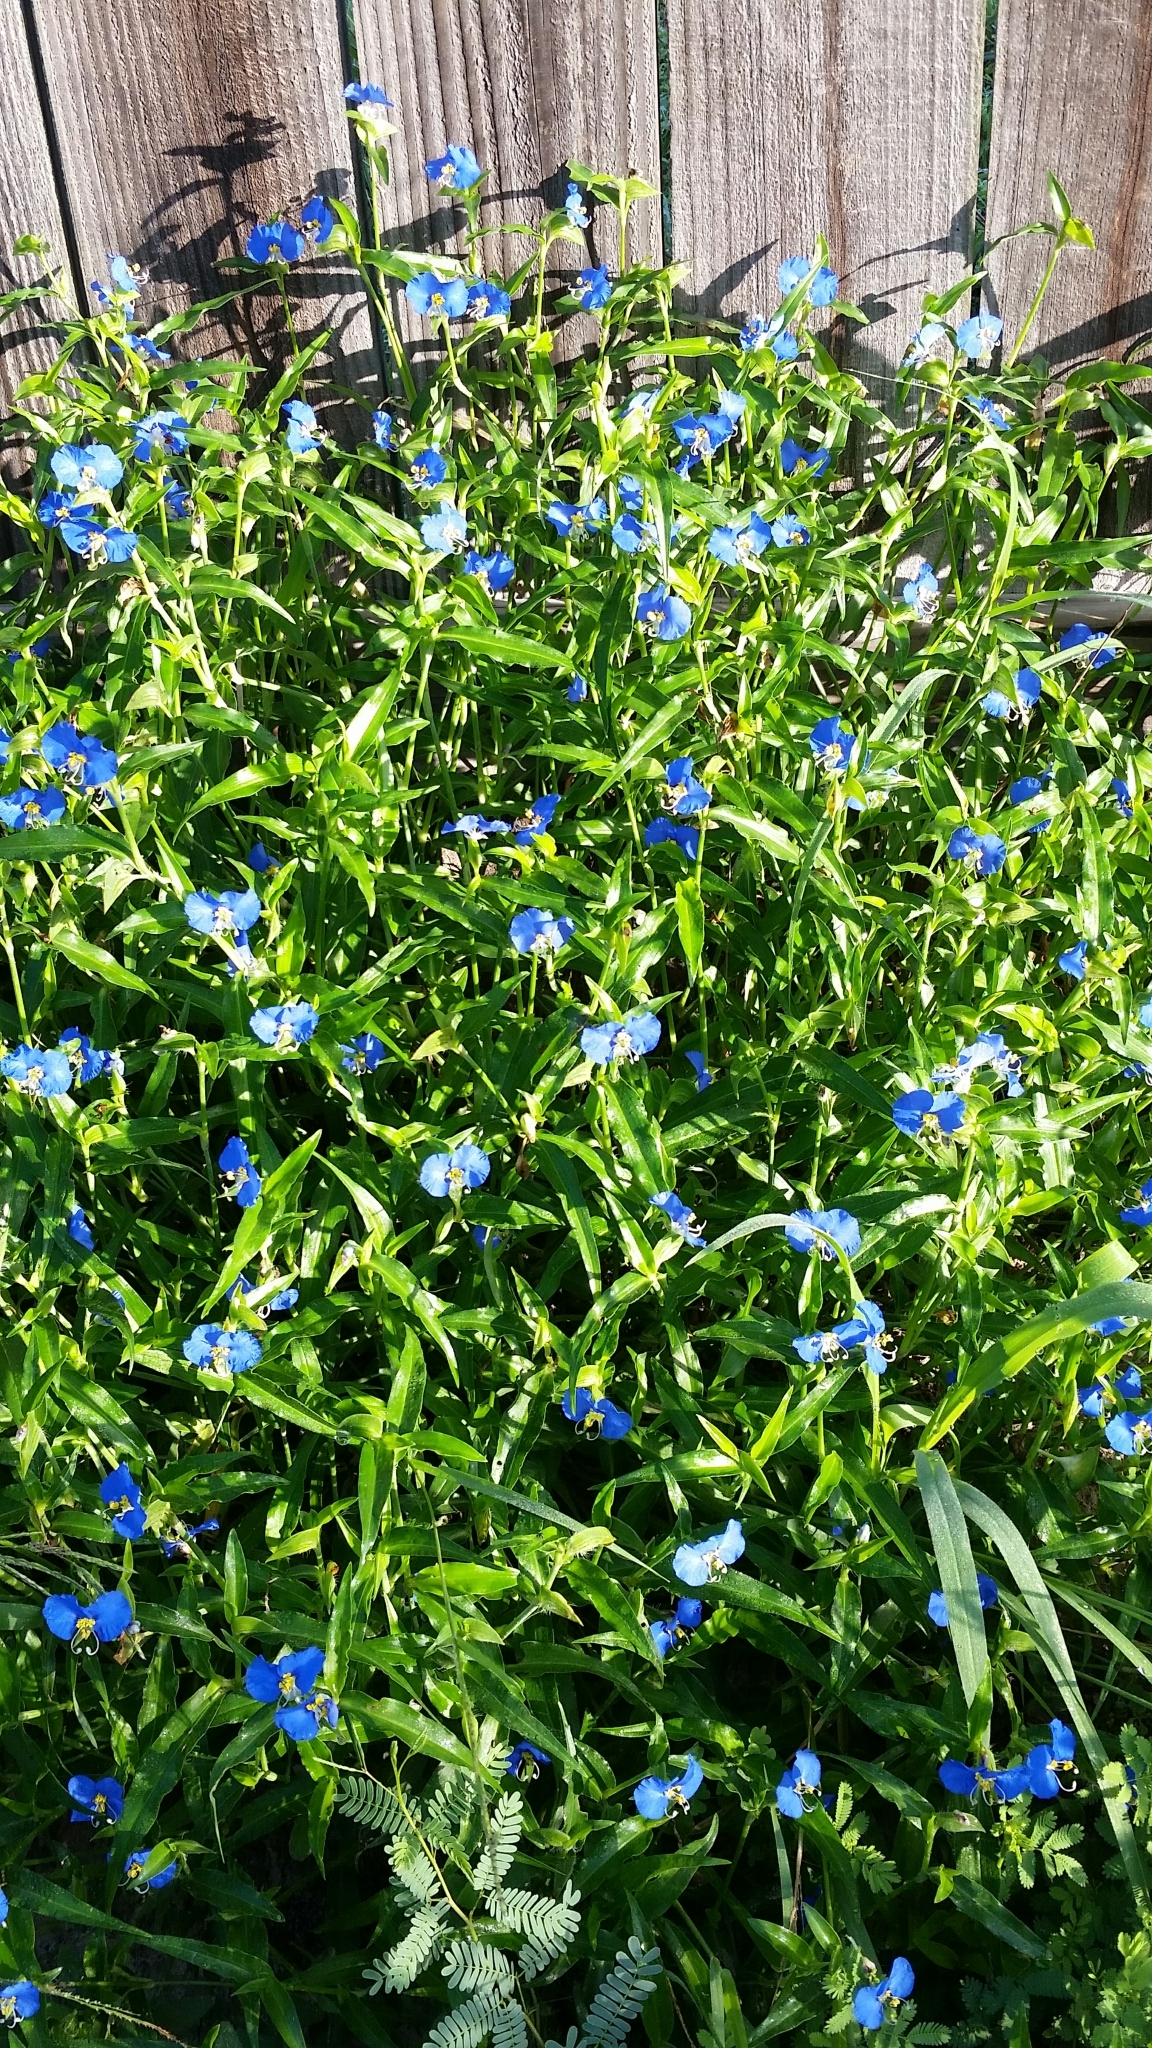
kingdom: Plantae
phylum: Tracheophyta
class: Liliopsida
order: Commelinales
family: Commelinaceae
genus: Commelina
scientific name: Commelina erecta
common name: Blousel blommetjie
